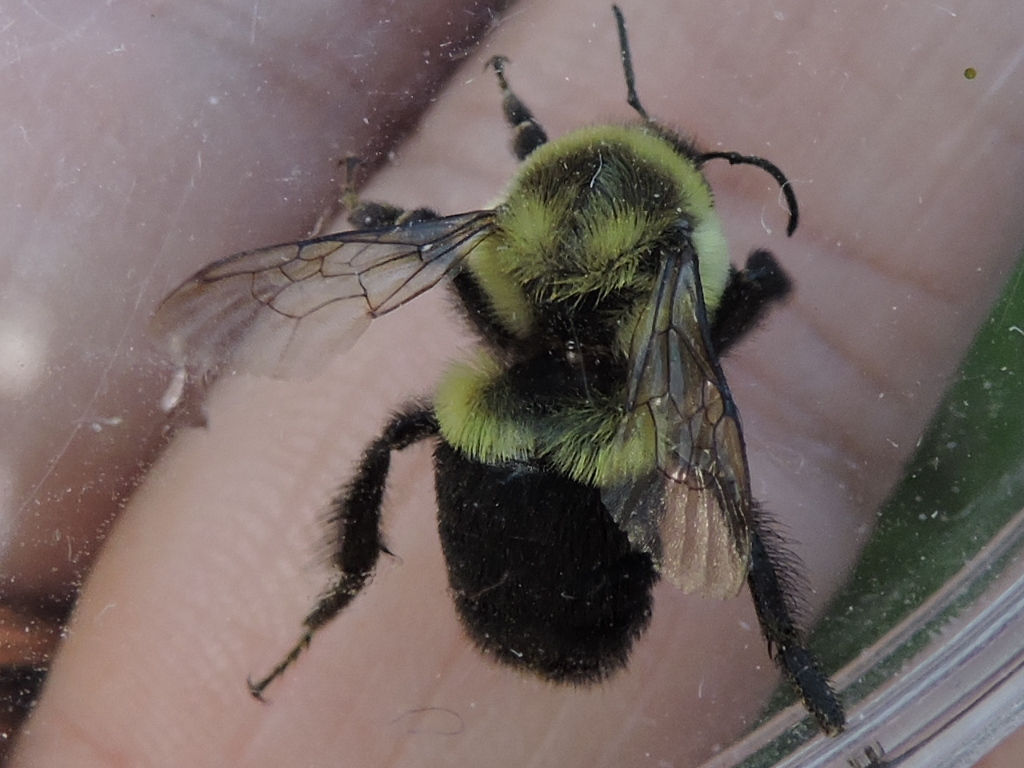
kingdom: Animalia
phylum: Arthropoda
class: Insecta
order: Hymenoptera
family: Apidae
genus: Bombus
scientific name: Bombus impatiens
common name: Common eastern bumble bee
